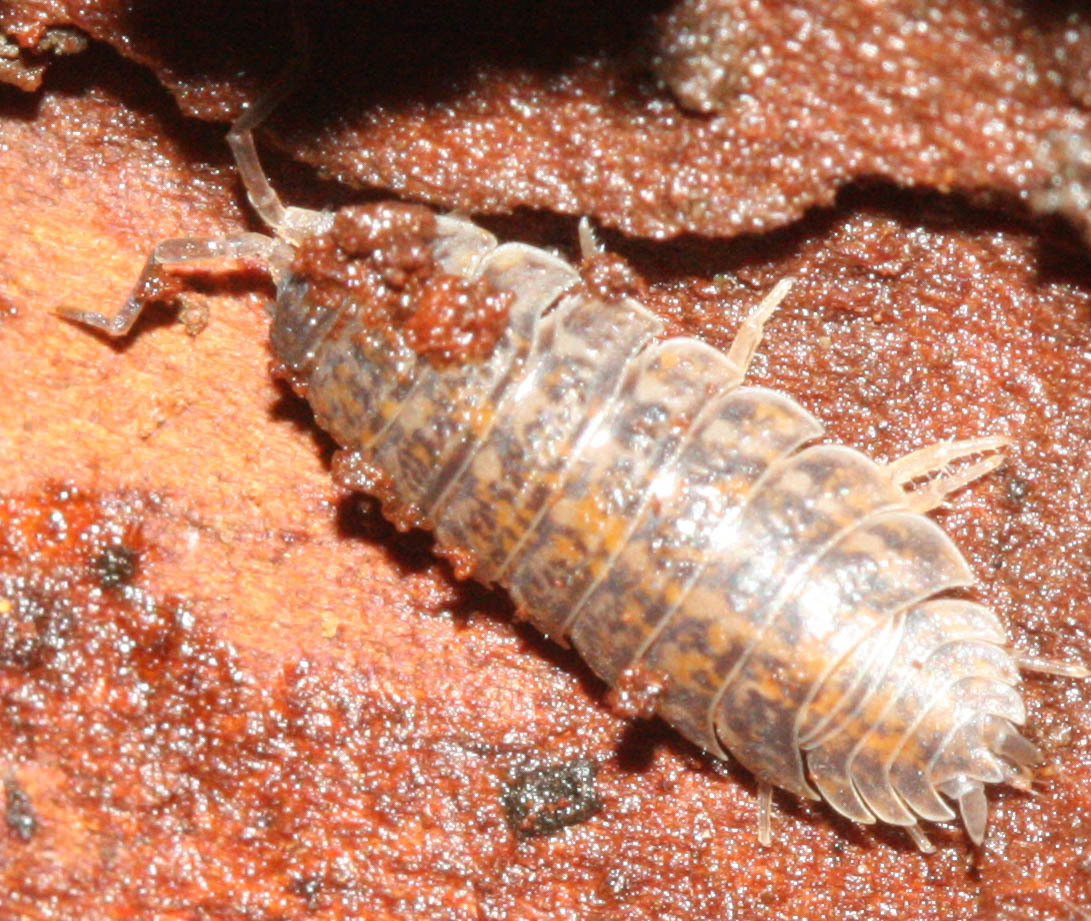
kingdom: Animalia
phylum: Arthropoda
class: Malacostraca
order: Isopoda
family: Trachelipodidae
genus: Trachelipus
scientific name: Trachelipus rathkii
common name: Isopod
